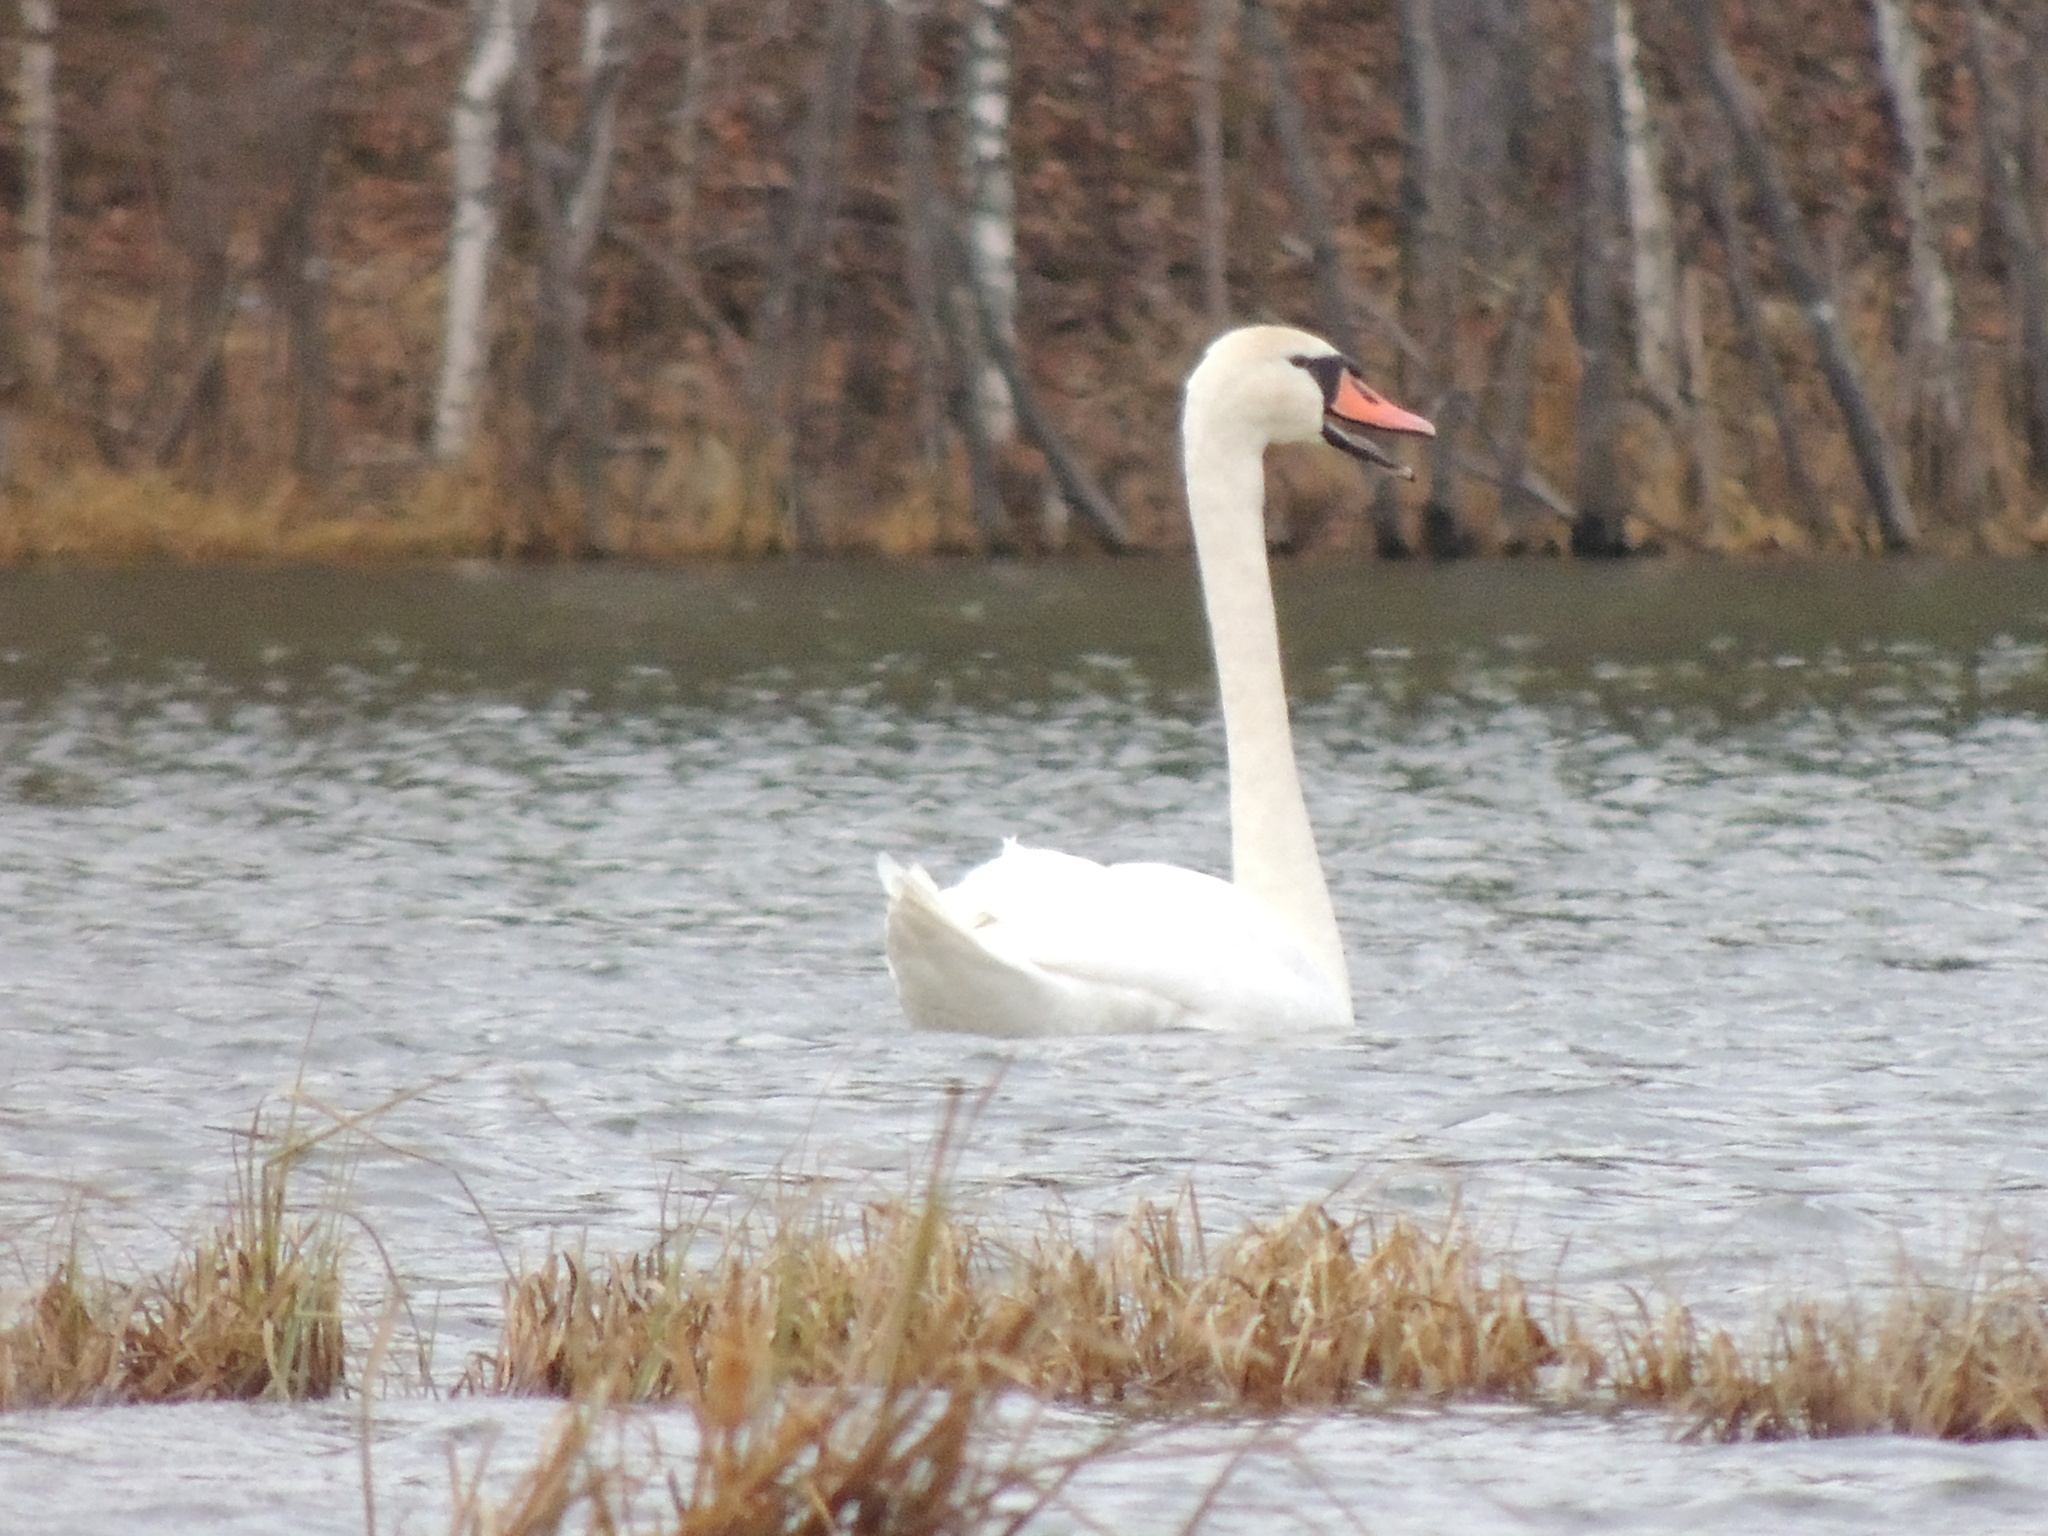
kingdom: Animalia
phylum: Chordata
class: Aves
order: Anseriformes
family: Anatidae
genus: Cygnus
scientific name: Cygnus olor
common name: Mute swan
